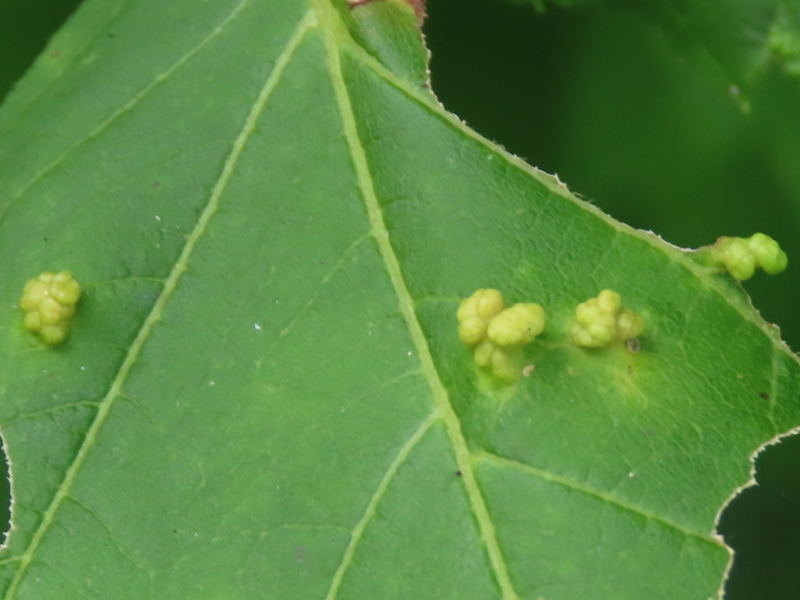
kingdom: Animalia
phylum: Arthropoda
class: Arachnida
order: Trombidiformes
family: Eriophyidae
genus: Aceria
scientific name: Aceria
